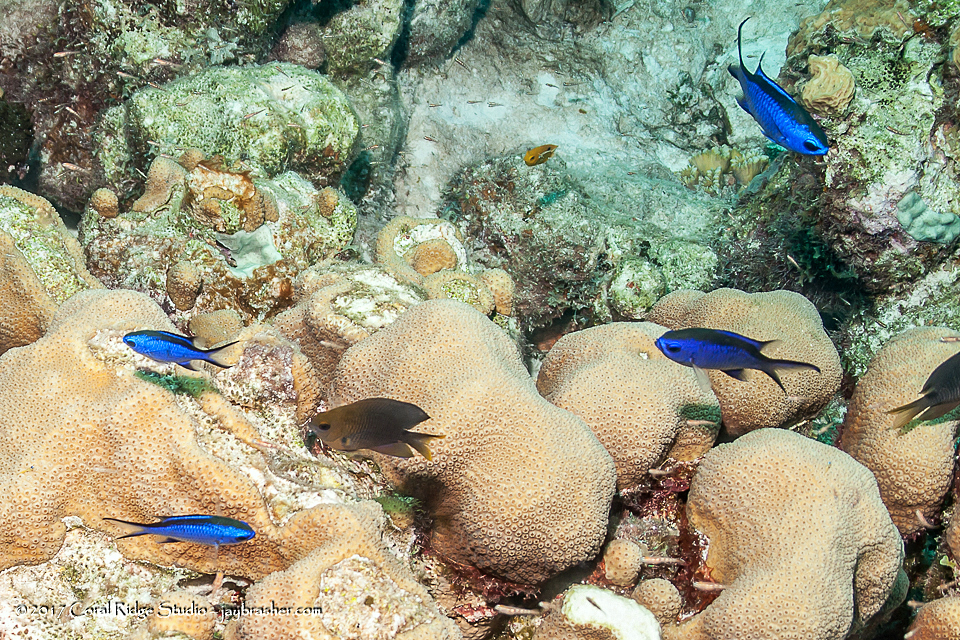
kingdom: Animalia
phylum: Chordata
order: Perciformes
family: Pomacentridae
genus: Chromis
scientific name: Chromis cyanea
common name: Blue chromis
